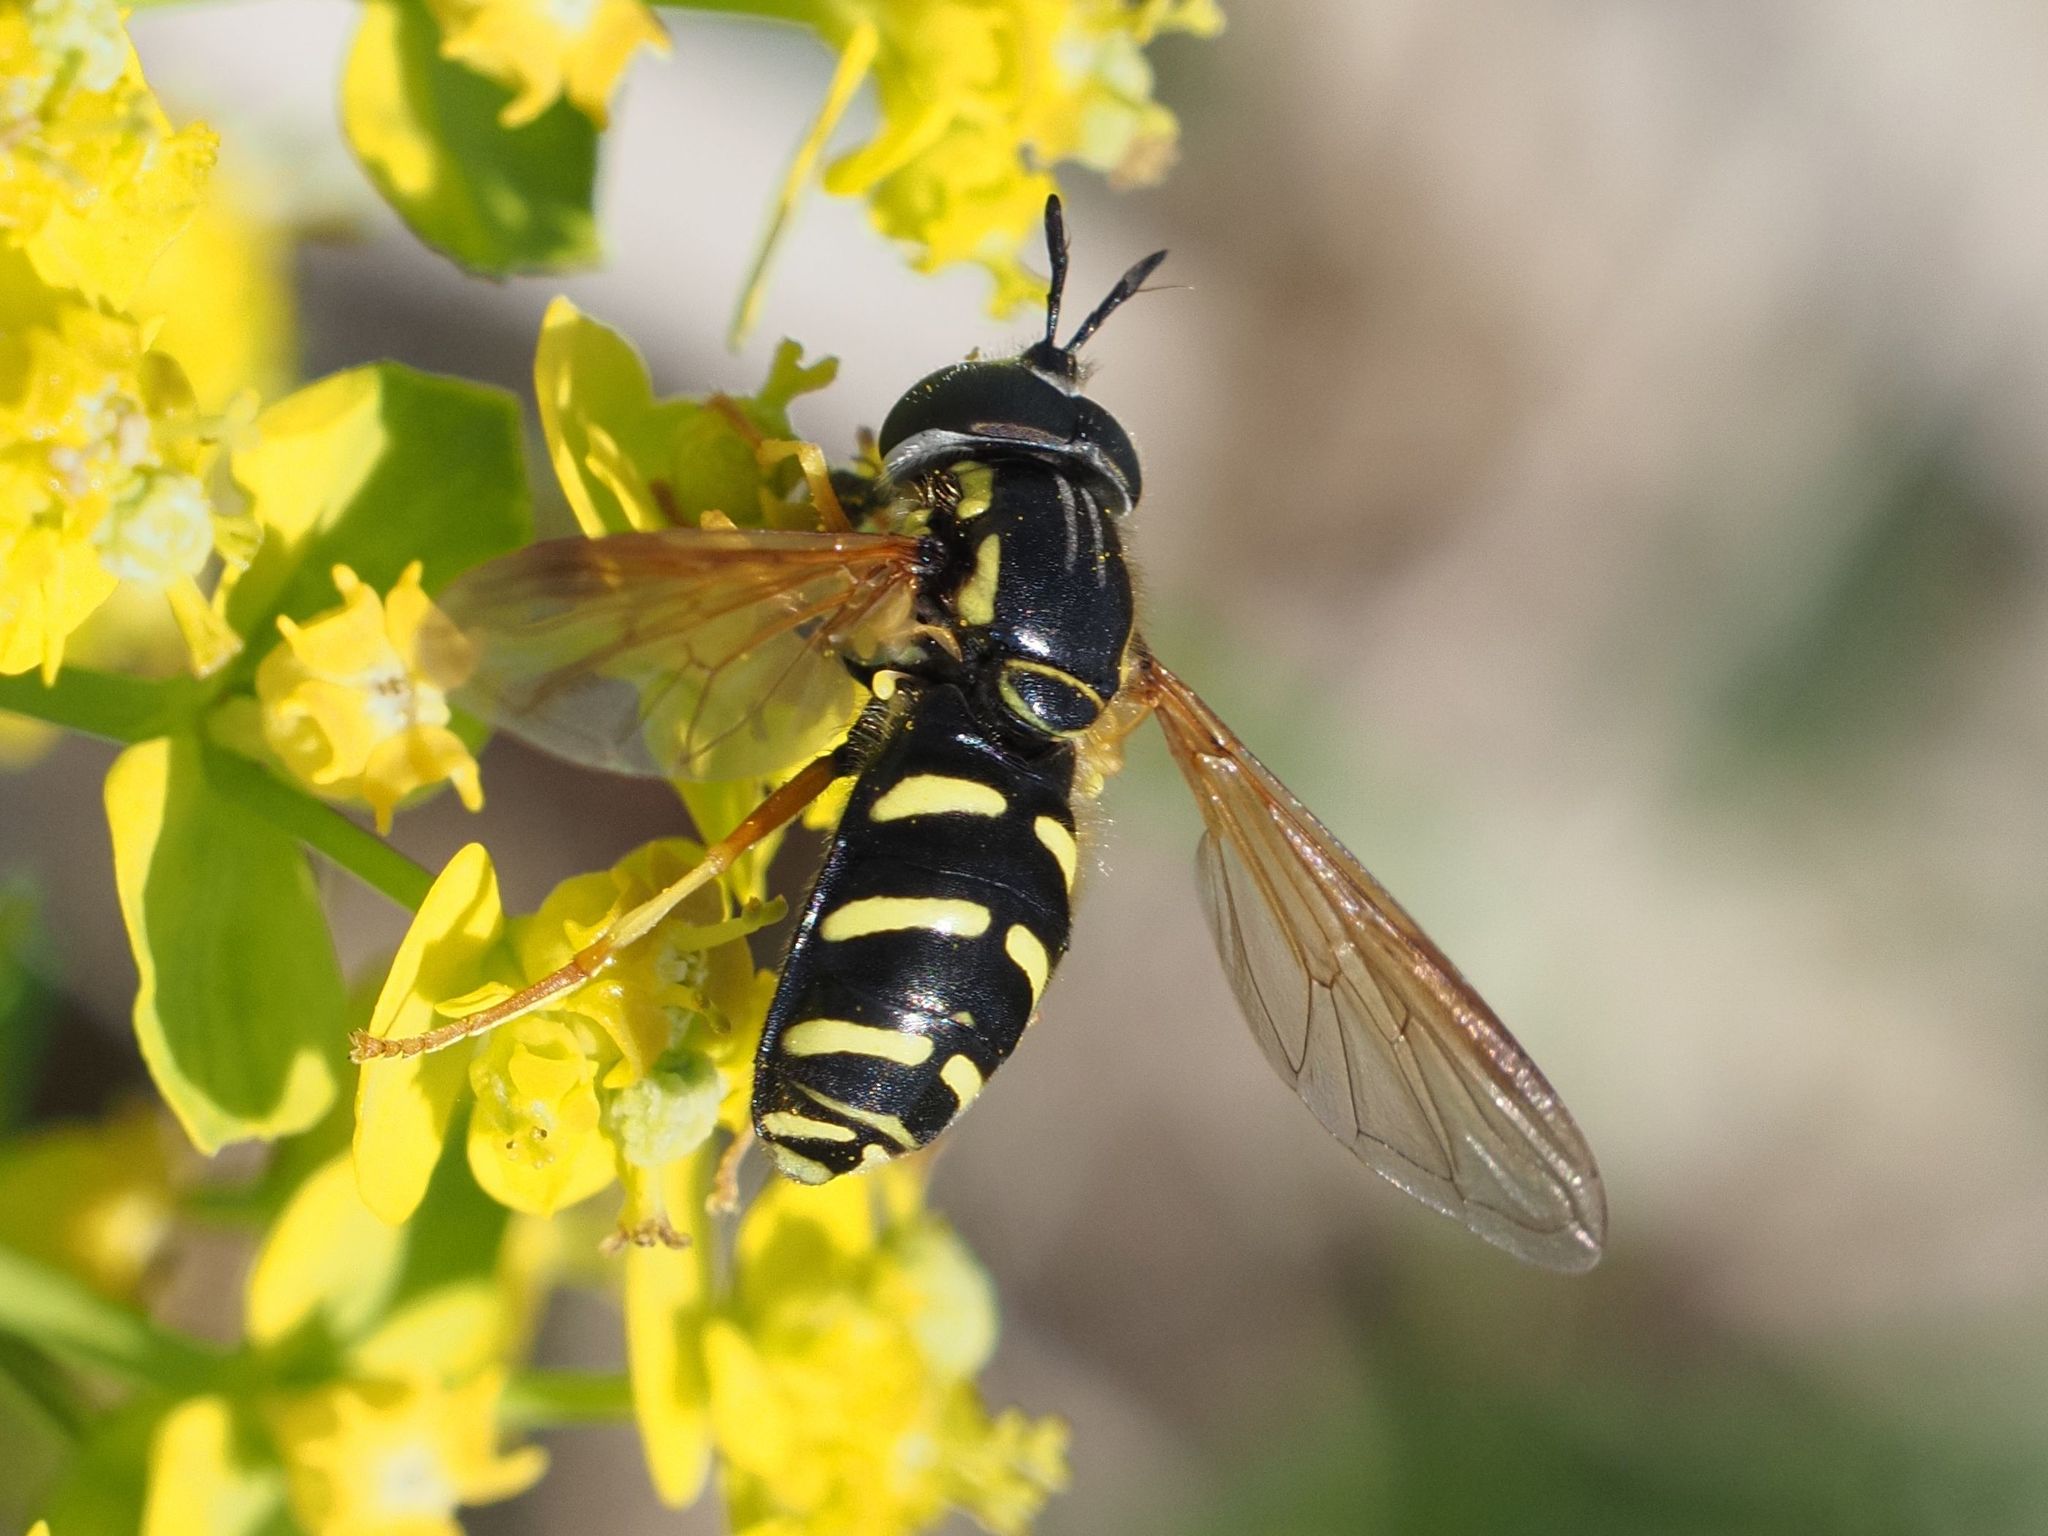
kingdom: Animalia
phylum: Arthropoda
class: Insecta
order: Diptera
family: Syrphidae
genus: Chrysotoxum
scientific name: Chrysotoxum vernale
